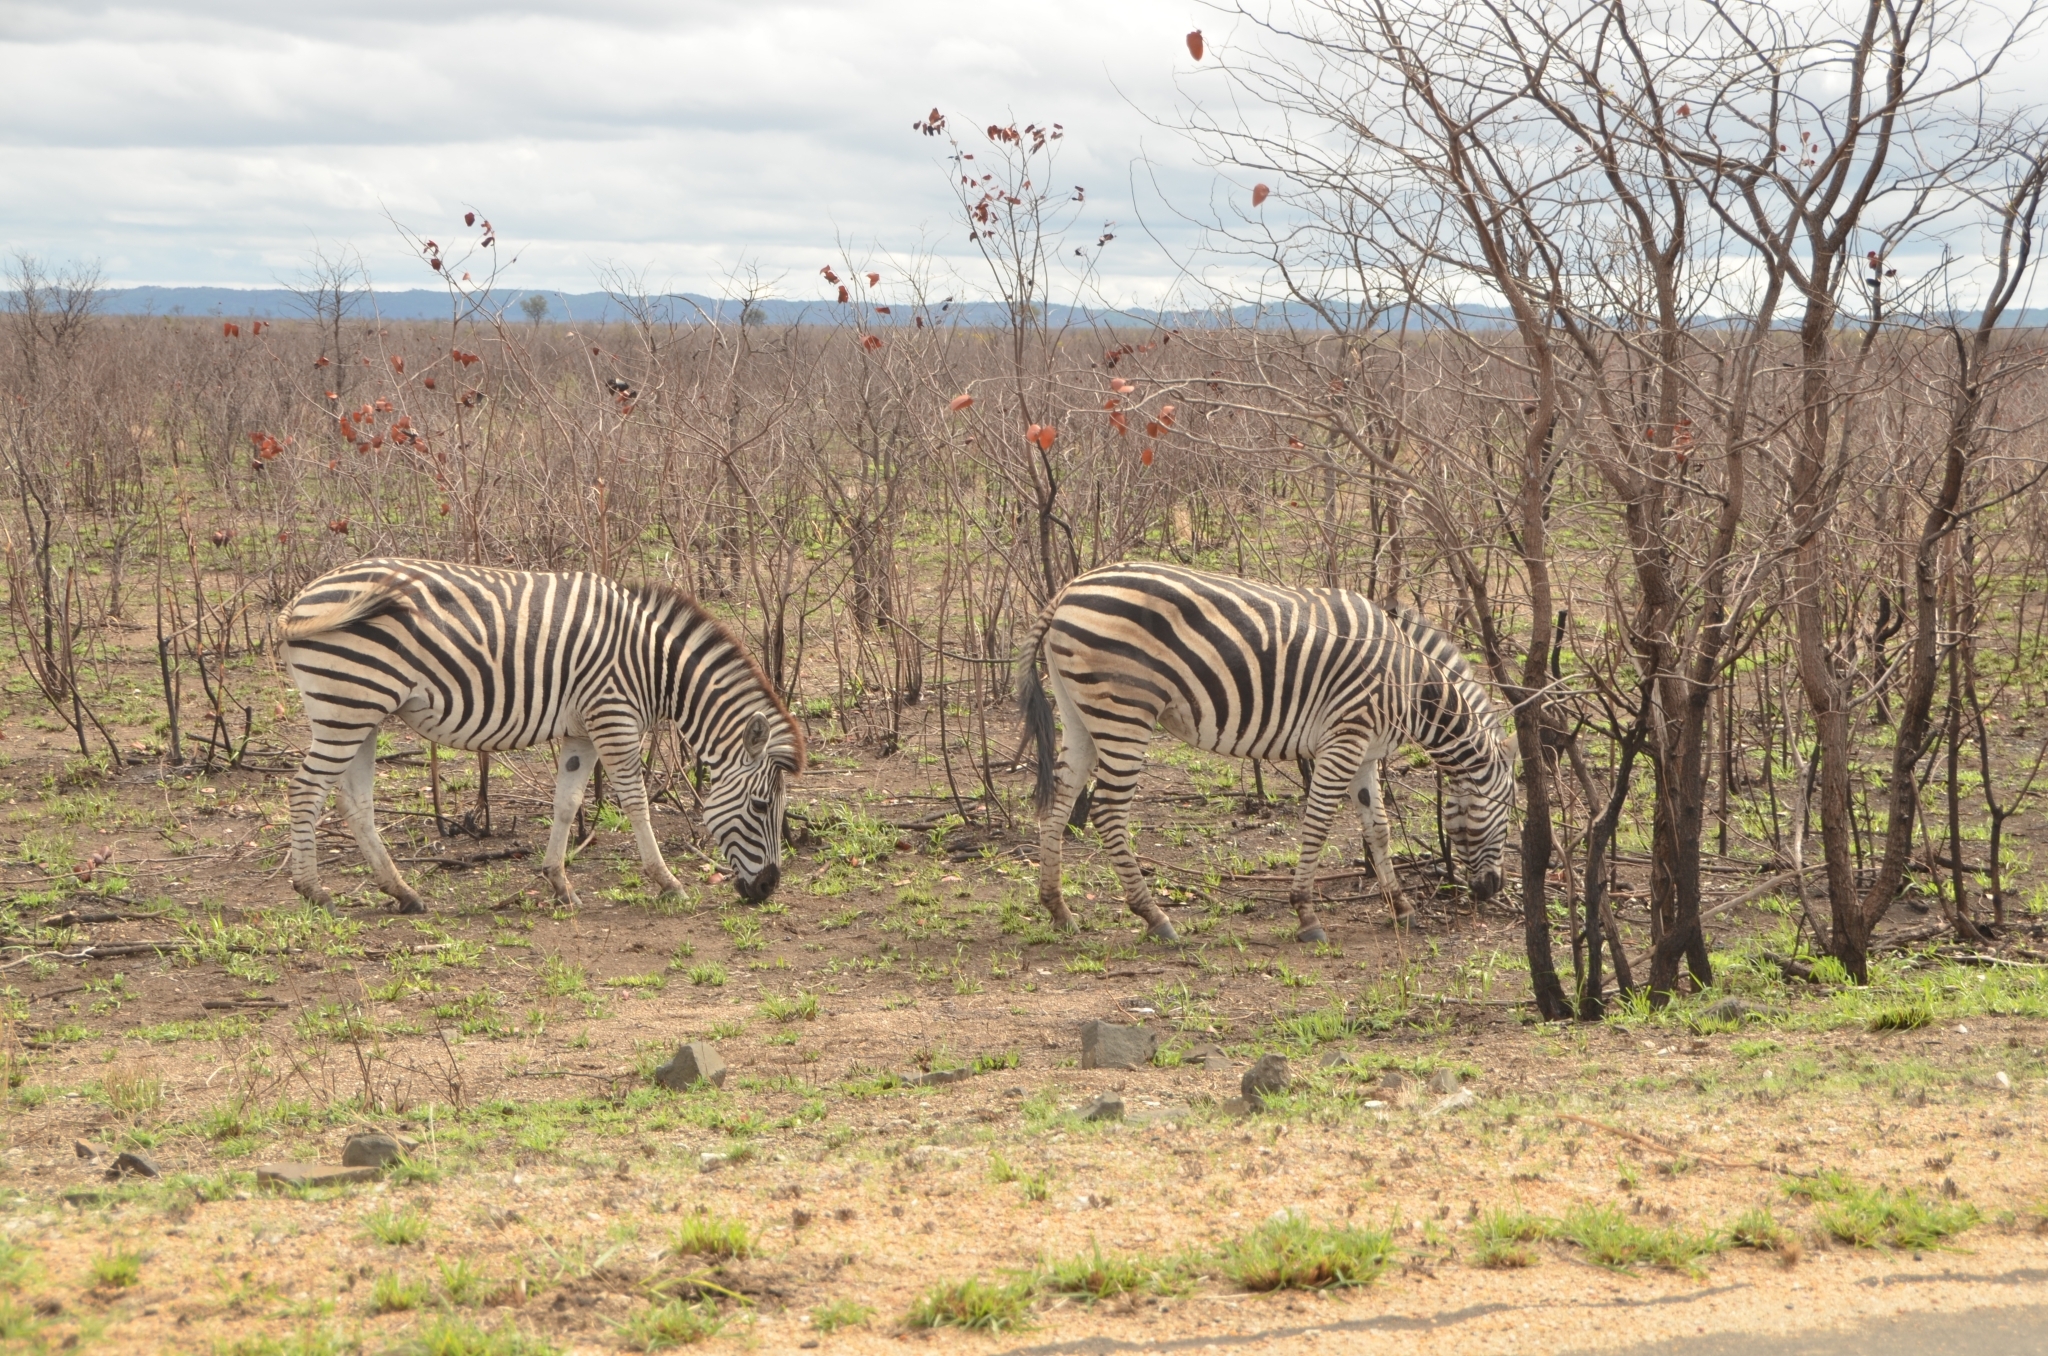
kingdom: Animalia
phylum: Chordata
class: Mammalia
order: Perissodactyla
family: Equidae
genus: Equus
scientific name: Equus quagga
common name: Plains zebra
